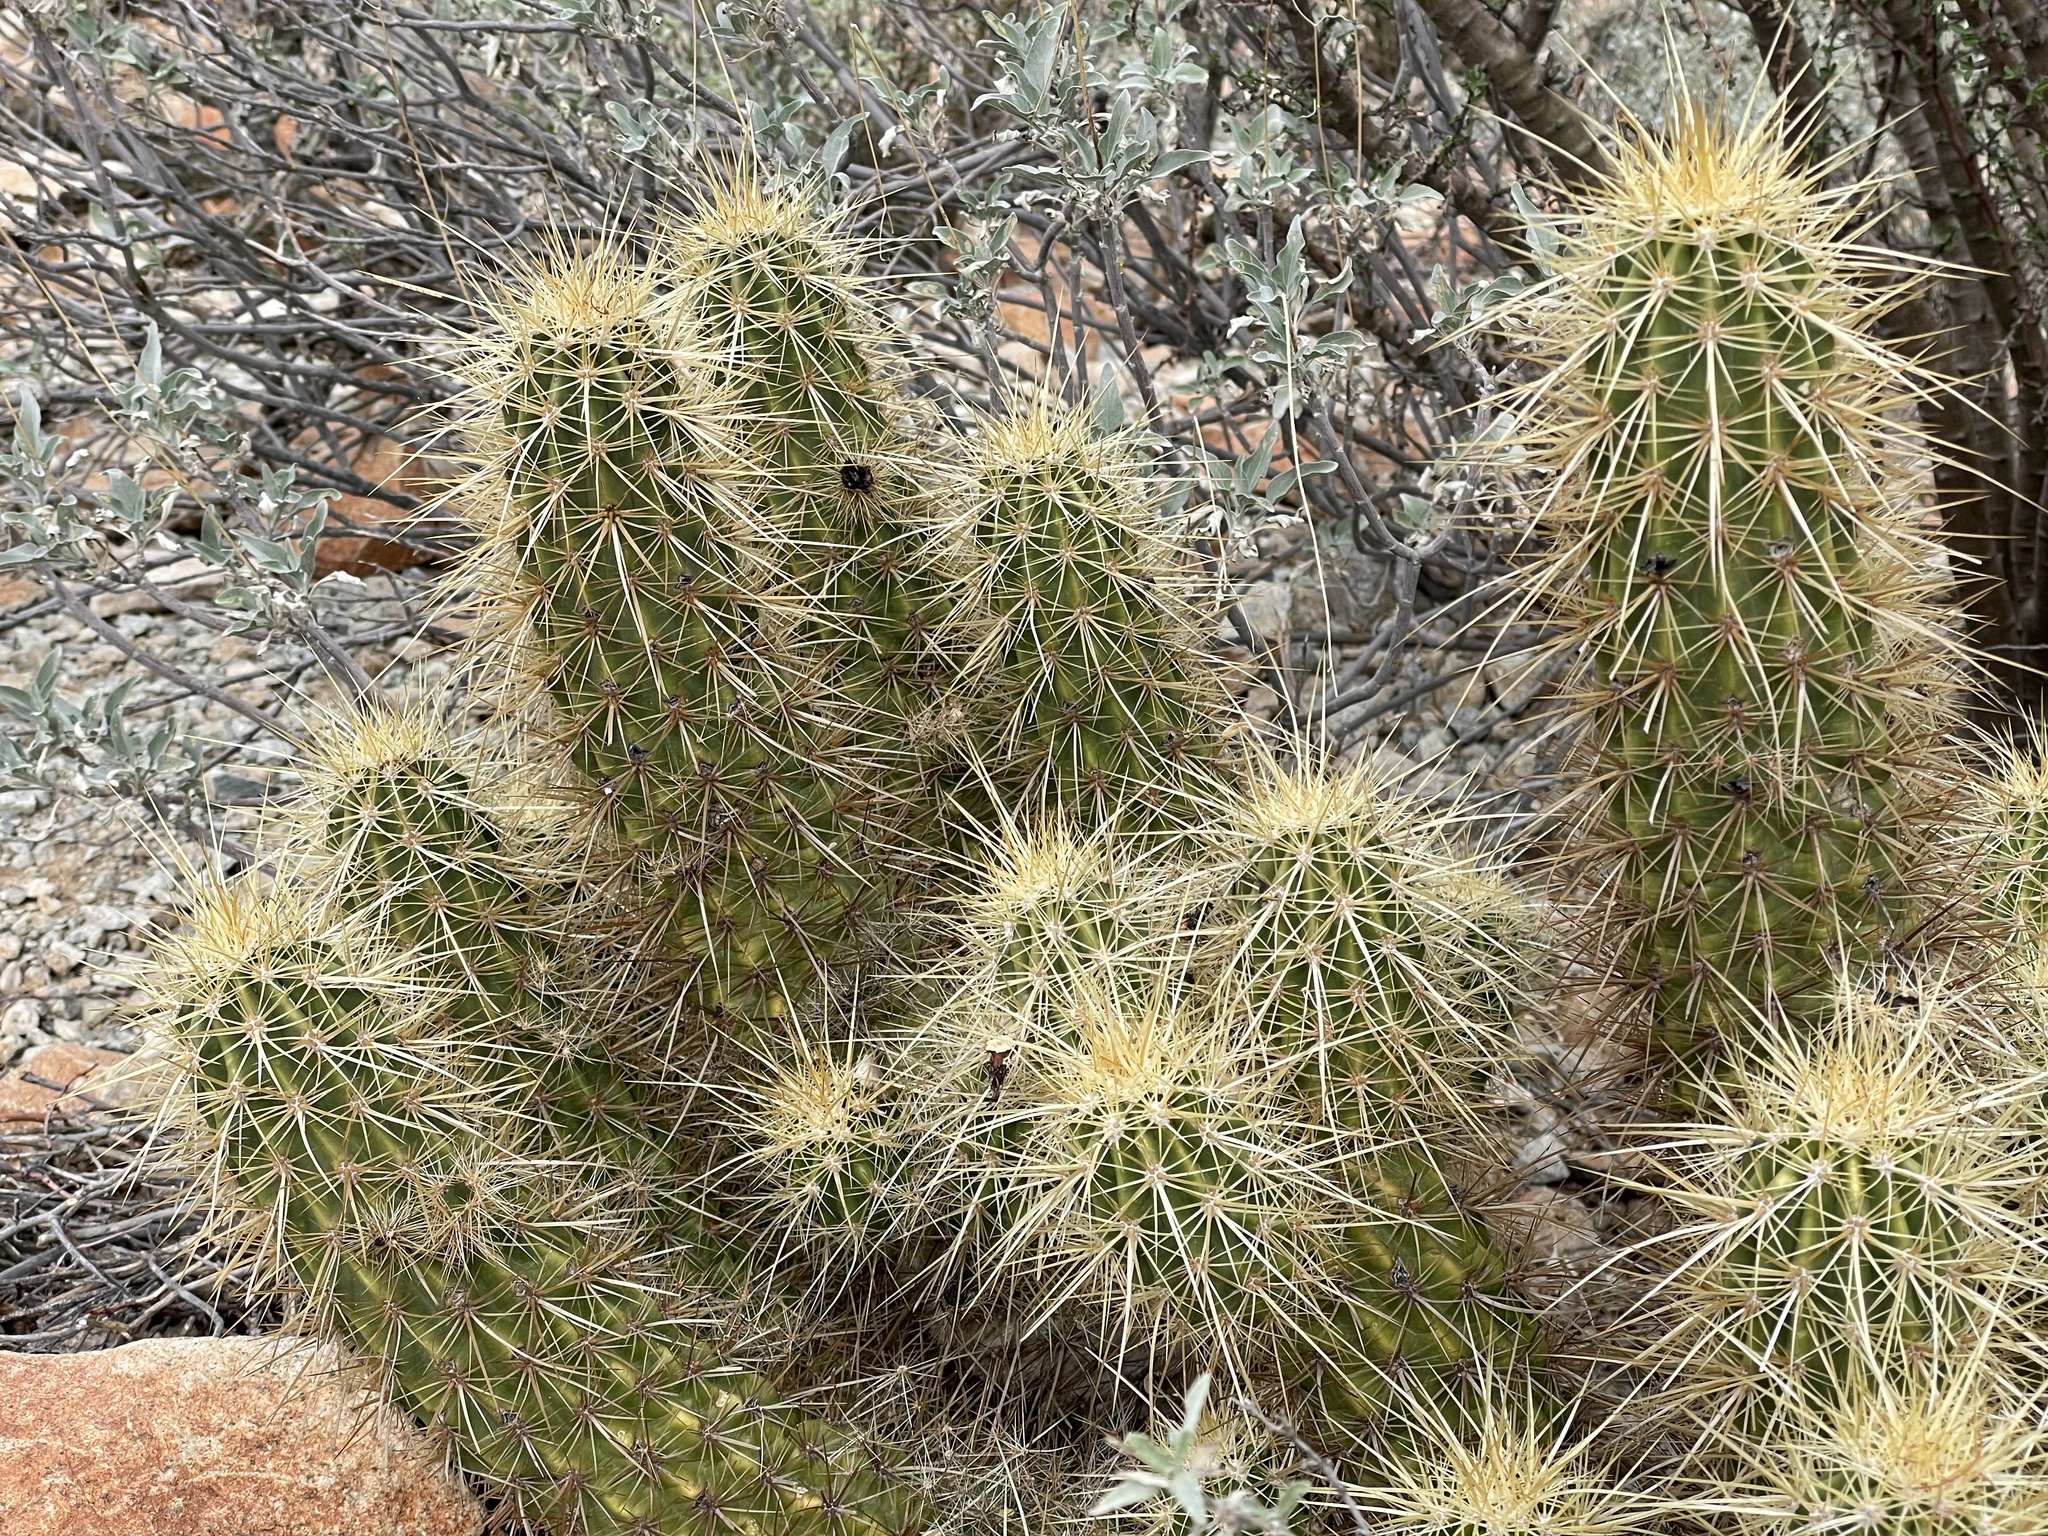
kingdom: Plantae
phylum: Tracheophyta
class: Magnoliopsida
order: Caryophyllales
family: Cactaceae
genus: Echinocereus
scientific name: Echinocereus nicholii
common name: Nichol's hedgehog cactus
